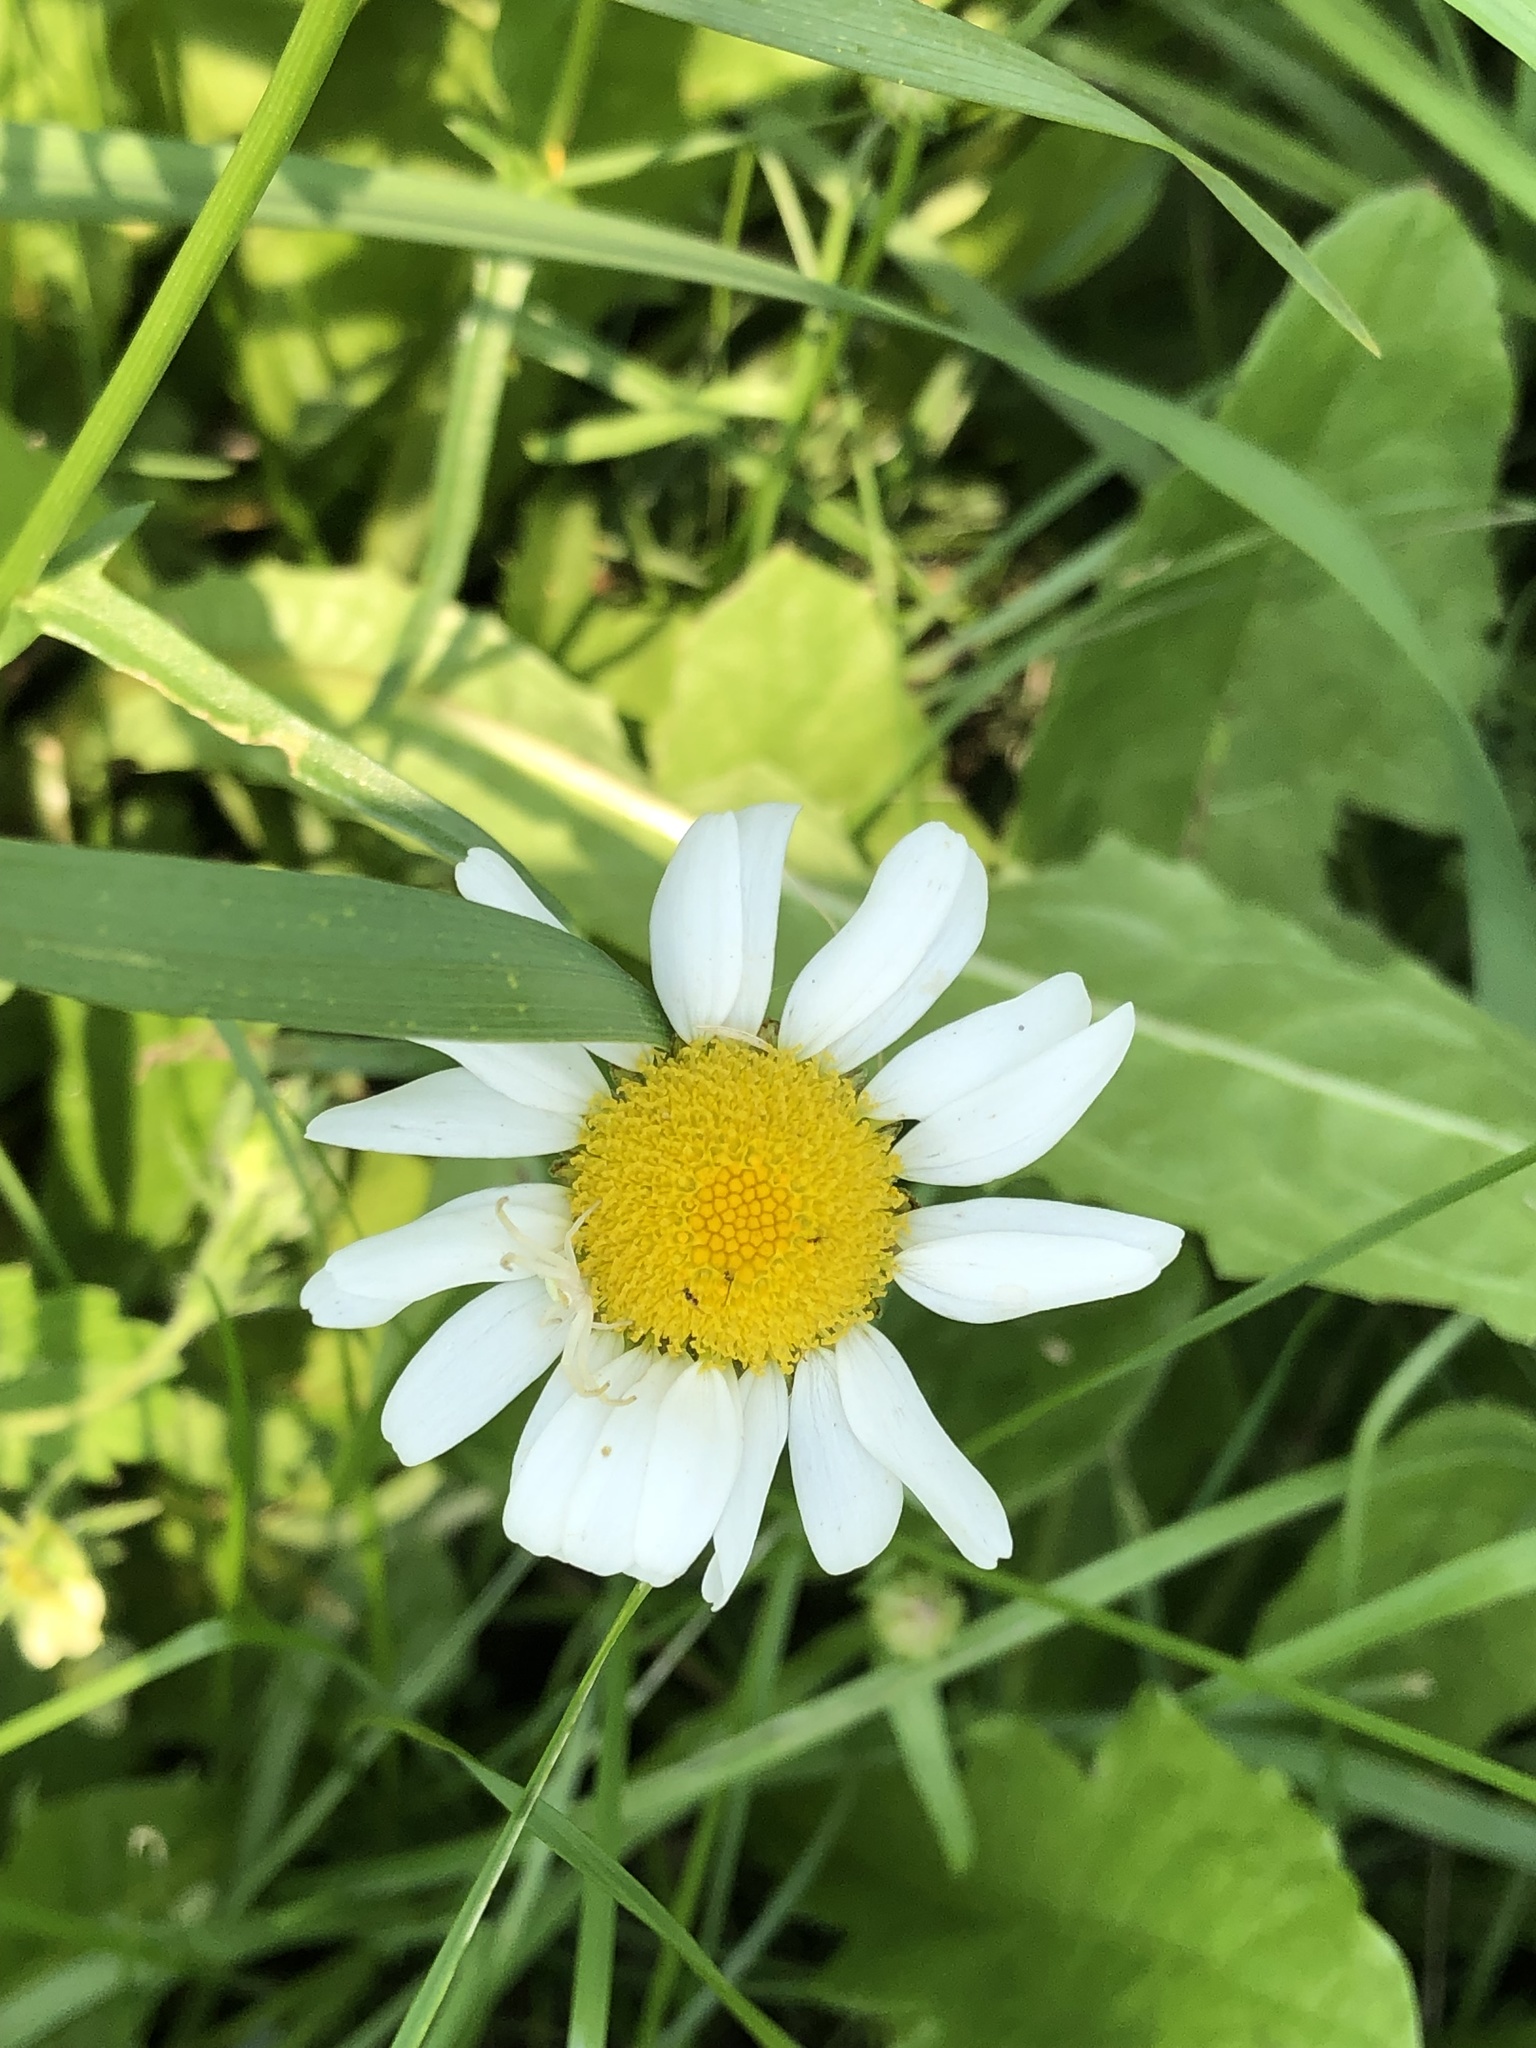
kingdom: Plantae
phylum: Tracheophyta
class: Magnoliopsida
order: Asterales
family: Asteraceae
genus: Leucanthemum
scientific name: Leucanthemum vulgare
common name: Oxeye daisy
